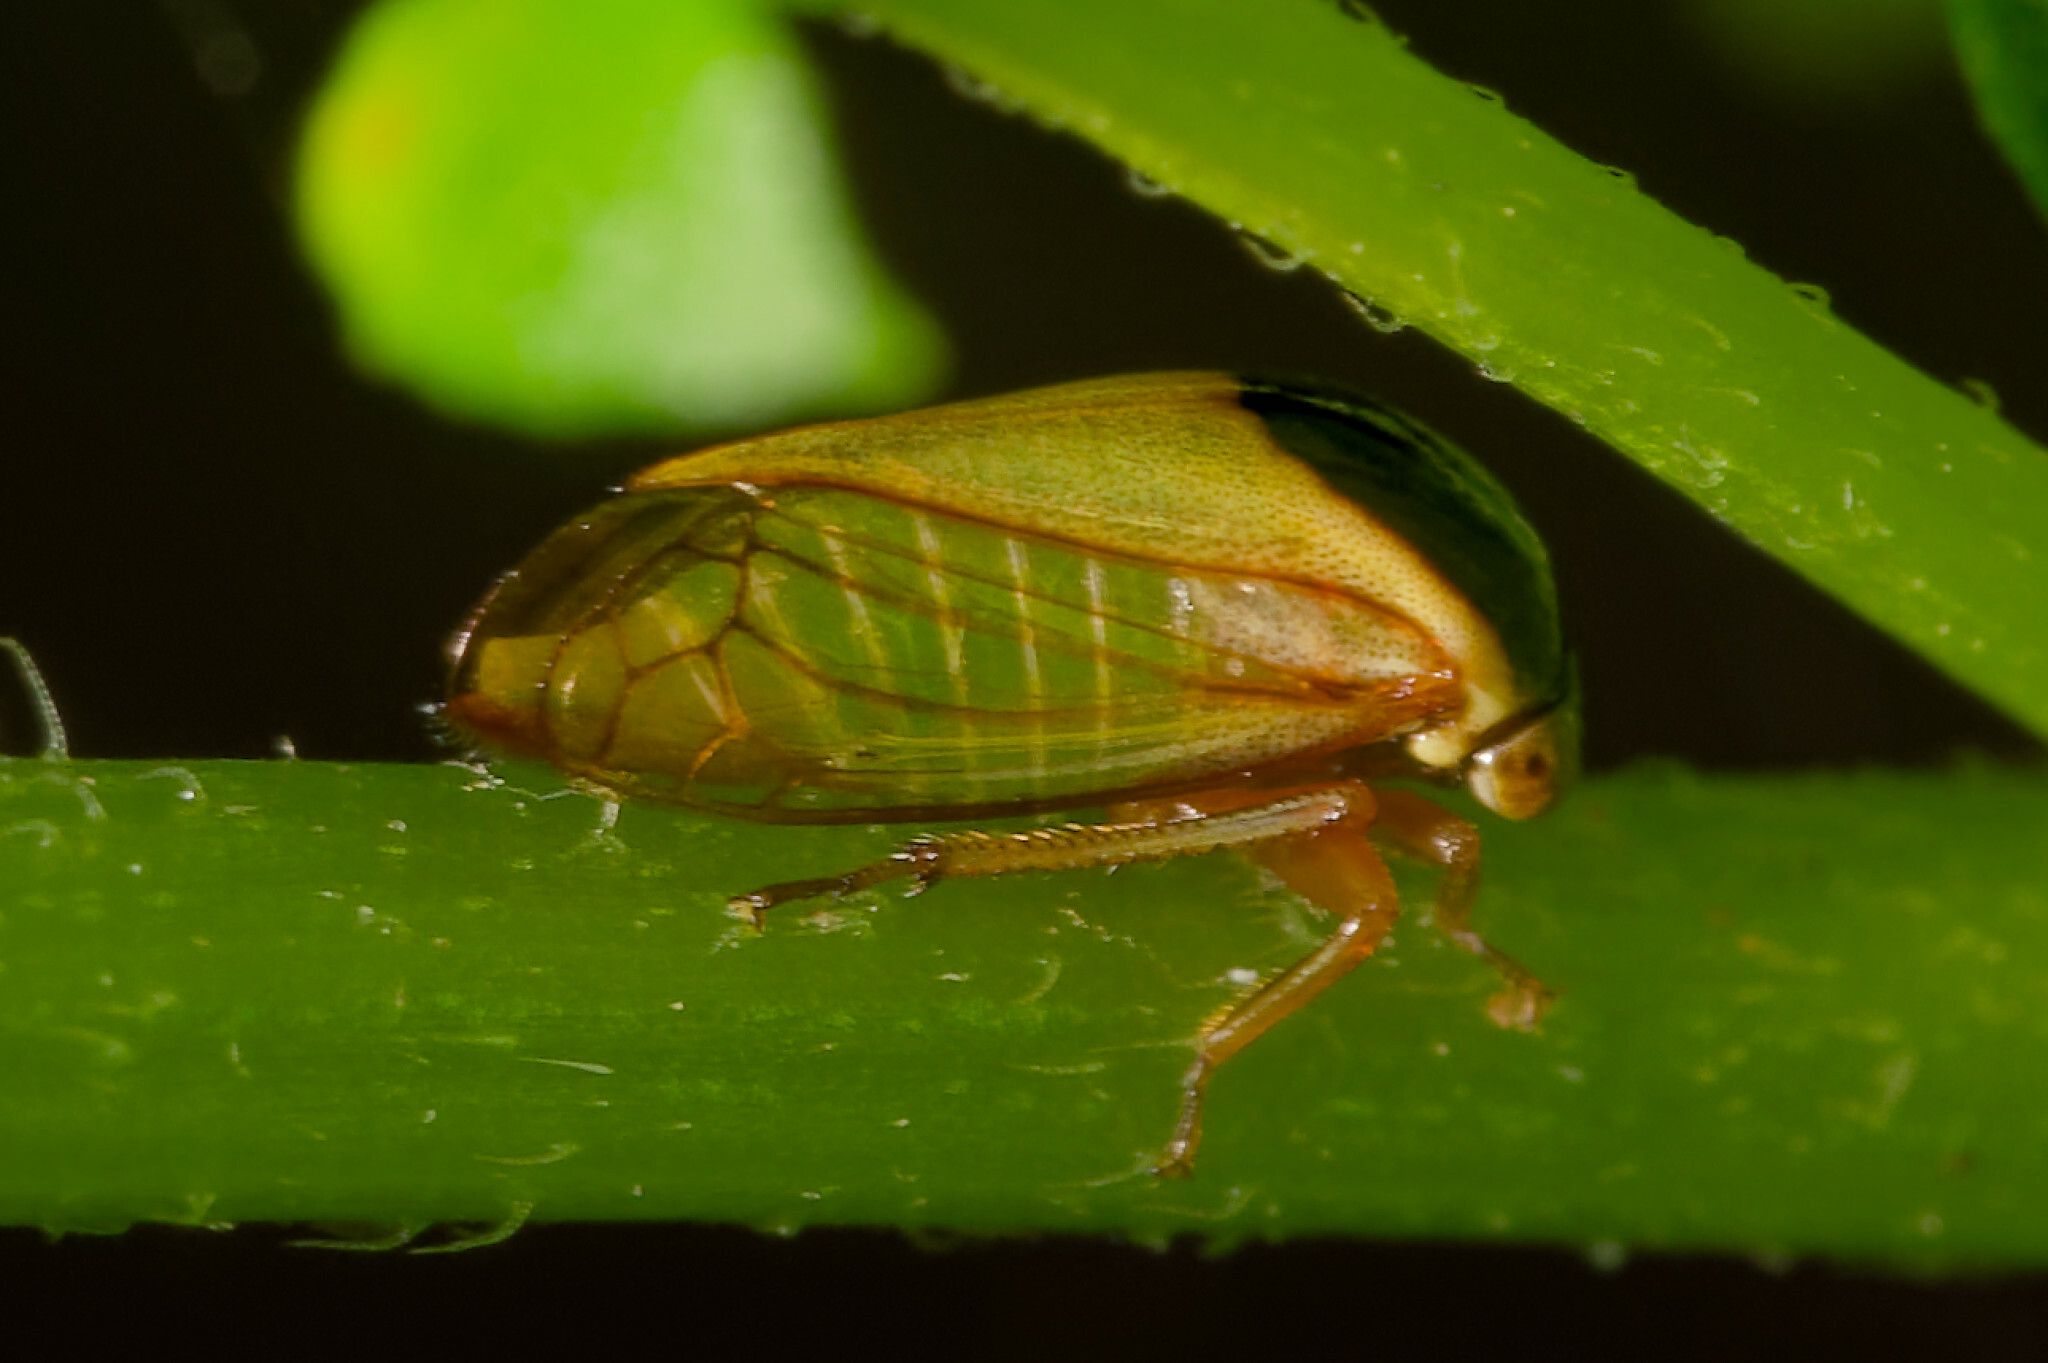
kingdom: Animalia
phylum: Arthropoda
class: Insecta
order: Hemiptera
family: Membracidae
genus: Acutalis
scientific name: Acutalis tartarea
